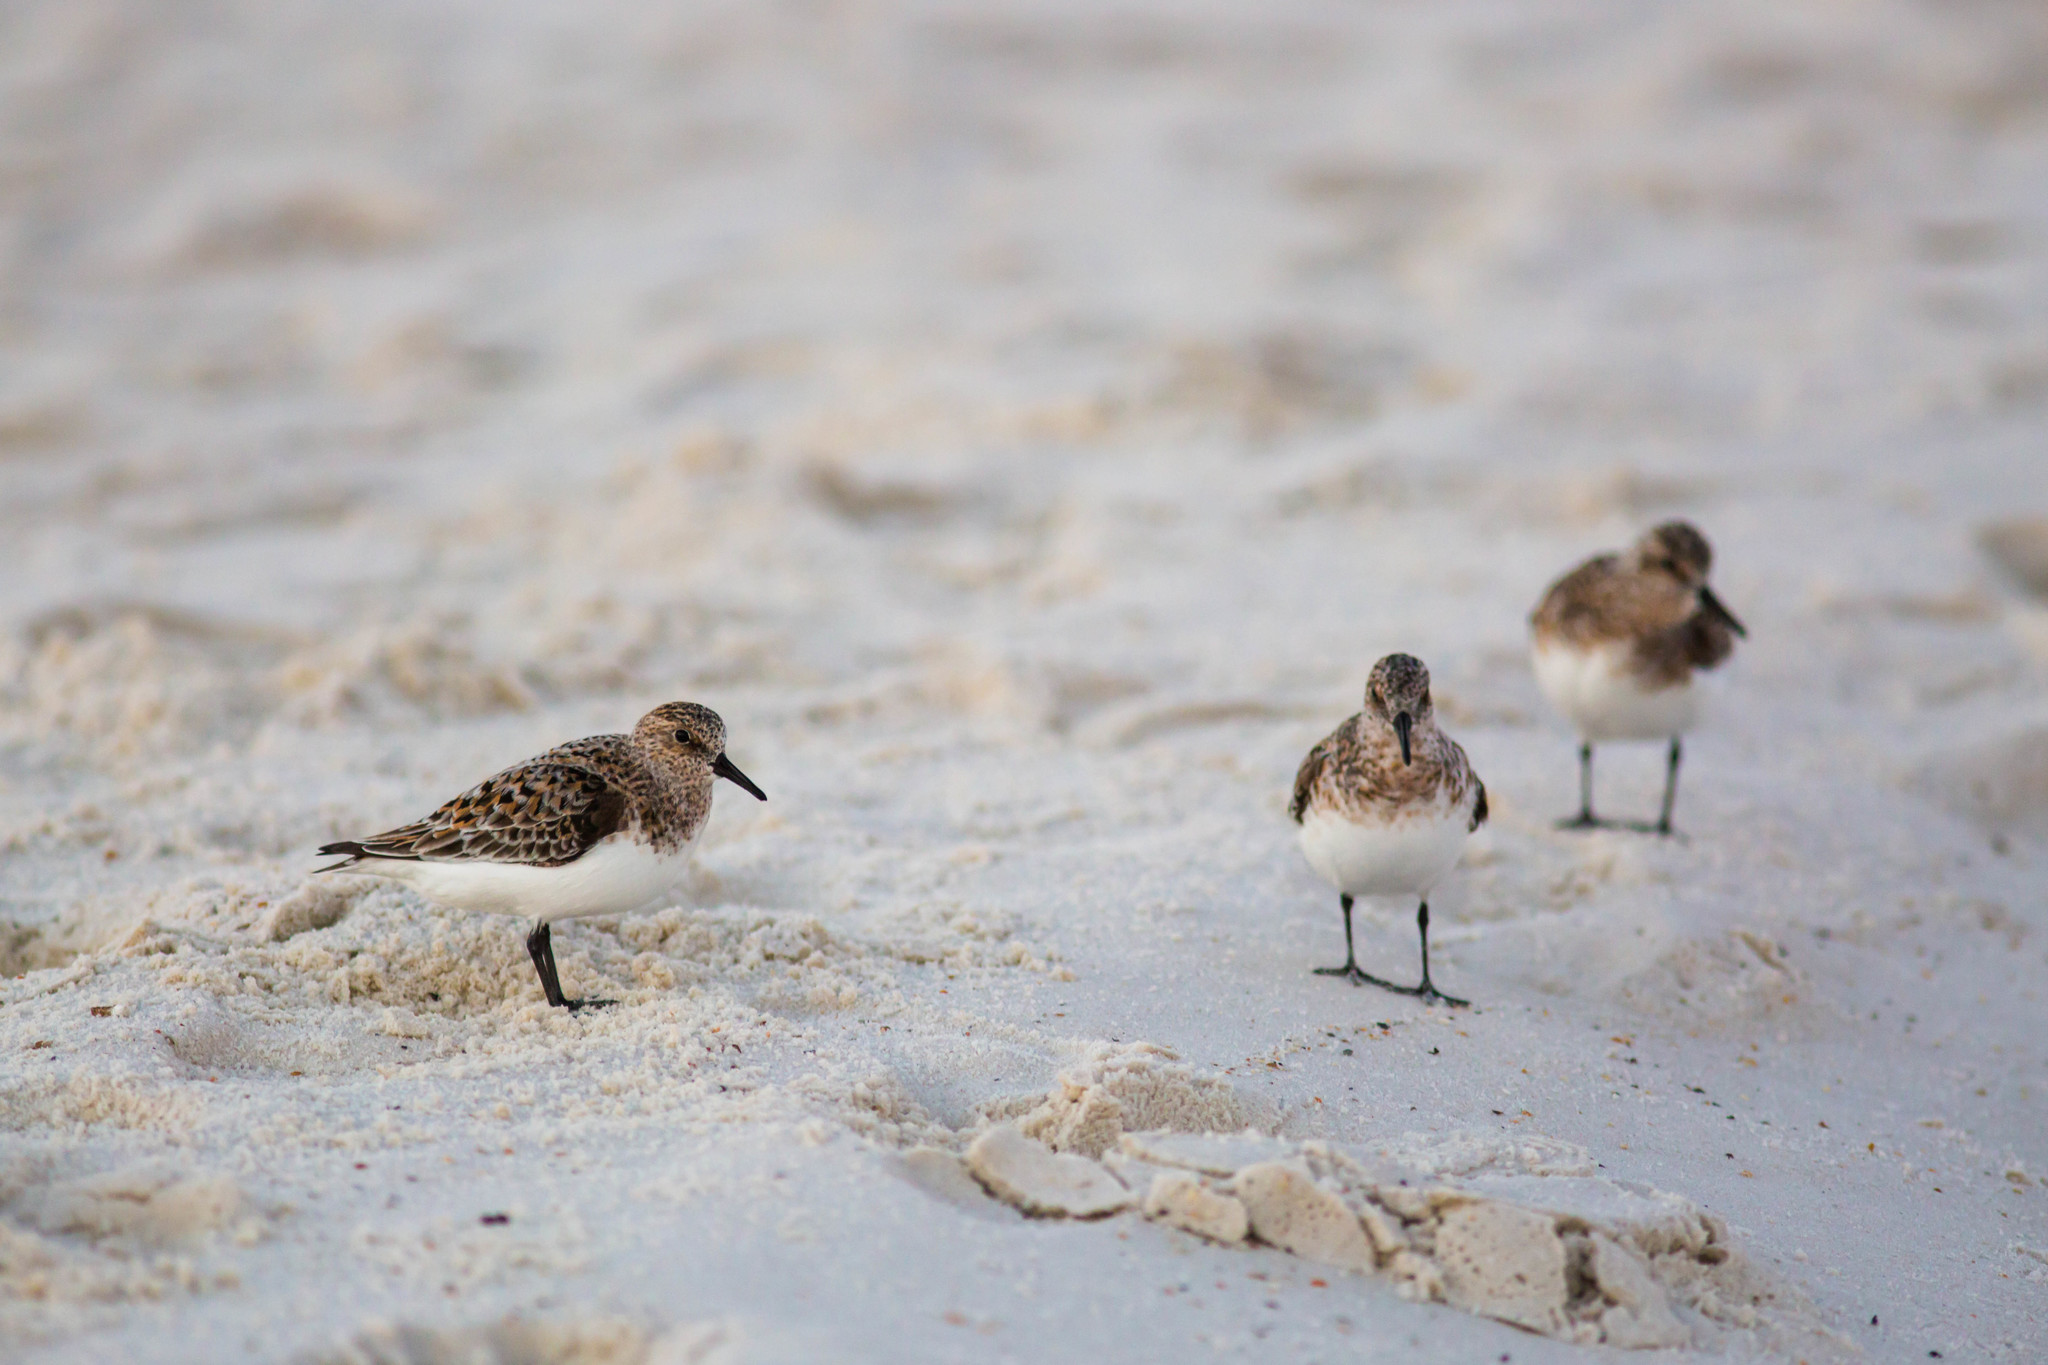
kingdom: Animalia
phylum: Chordata
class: Aves
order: Charadriiformes
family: Scolopacidae
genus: Calidris
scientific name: Calidris alba
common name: Sanderling
